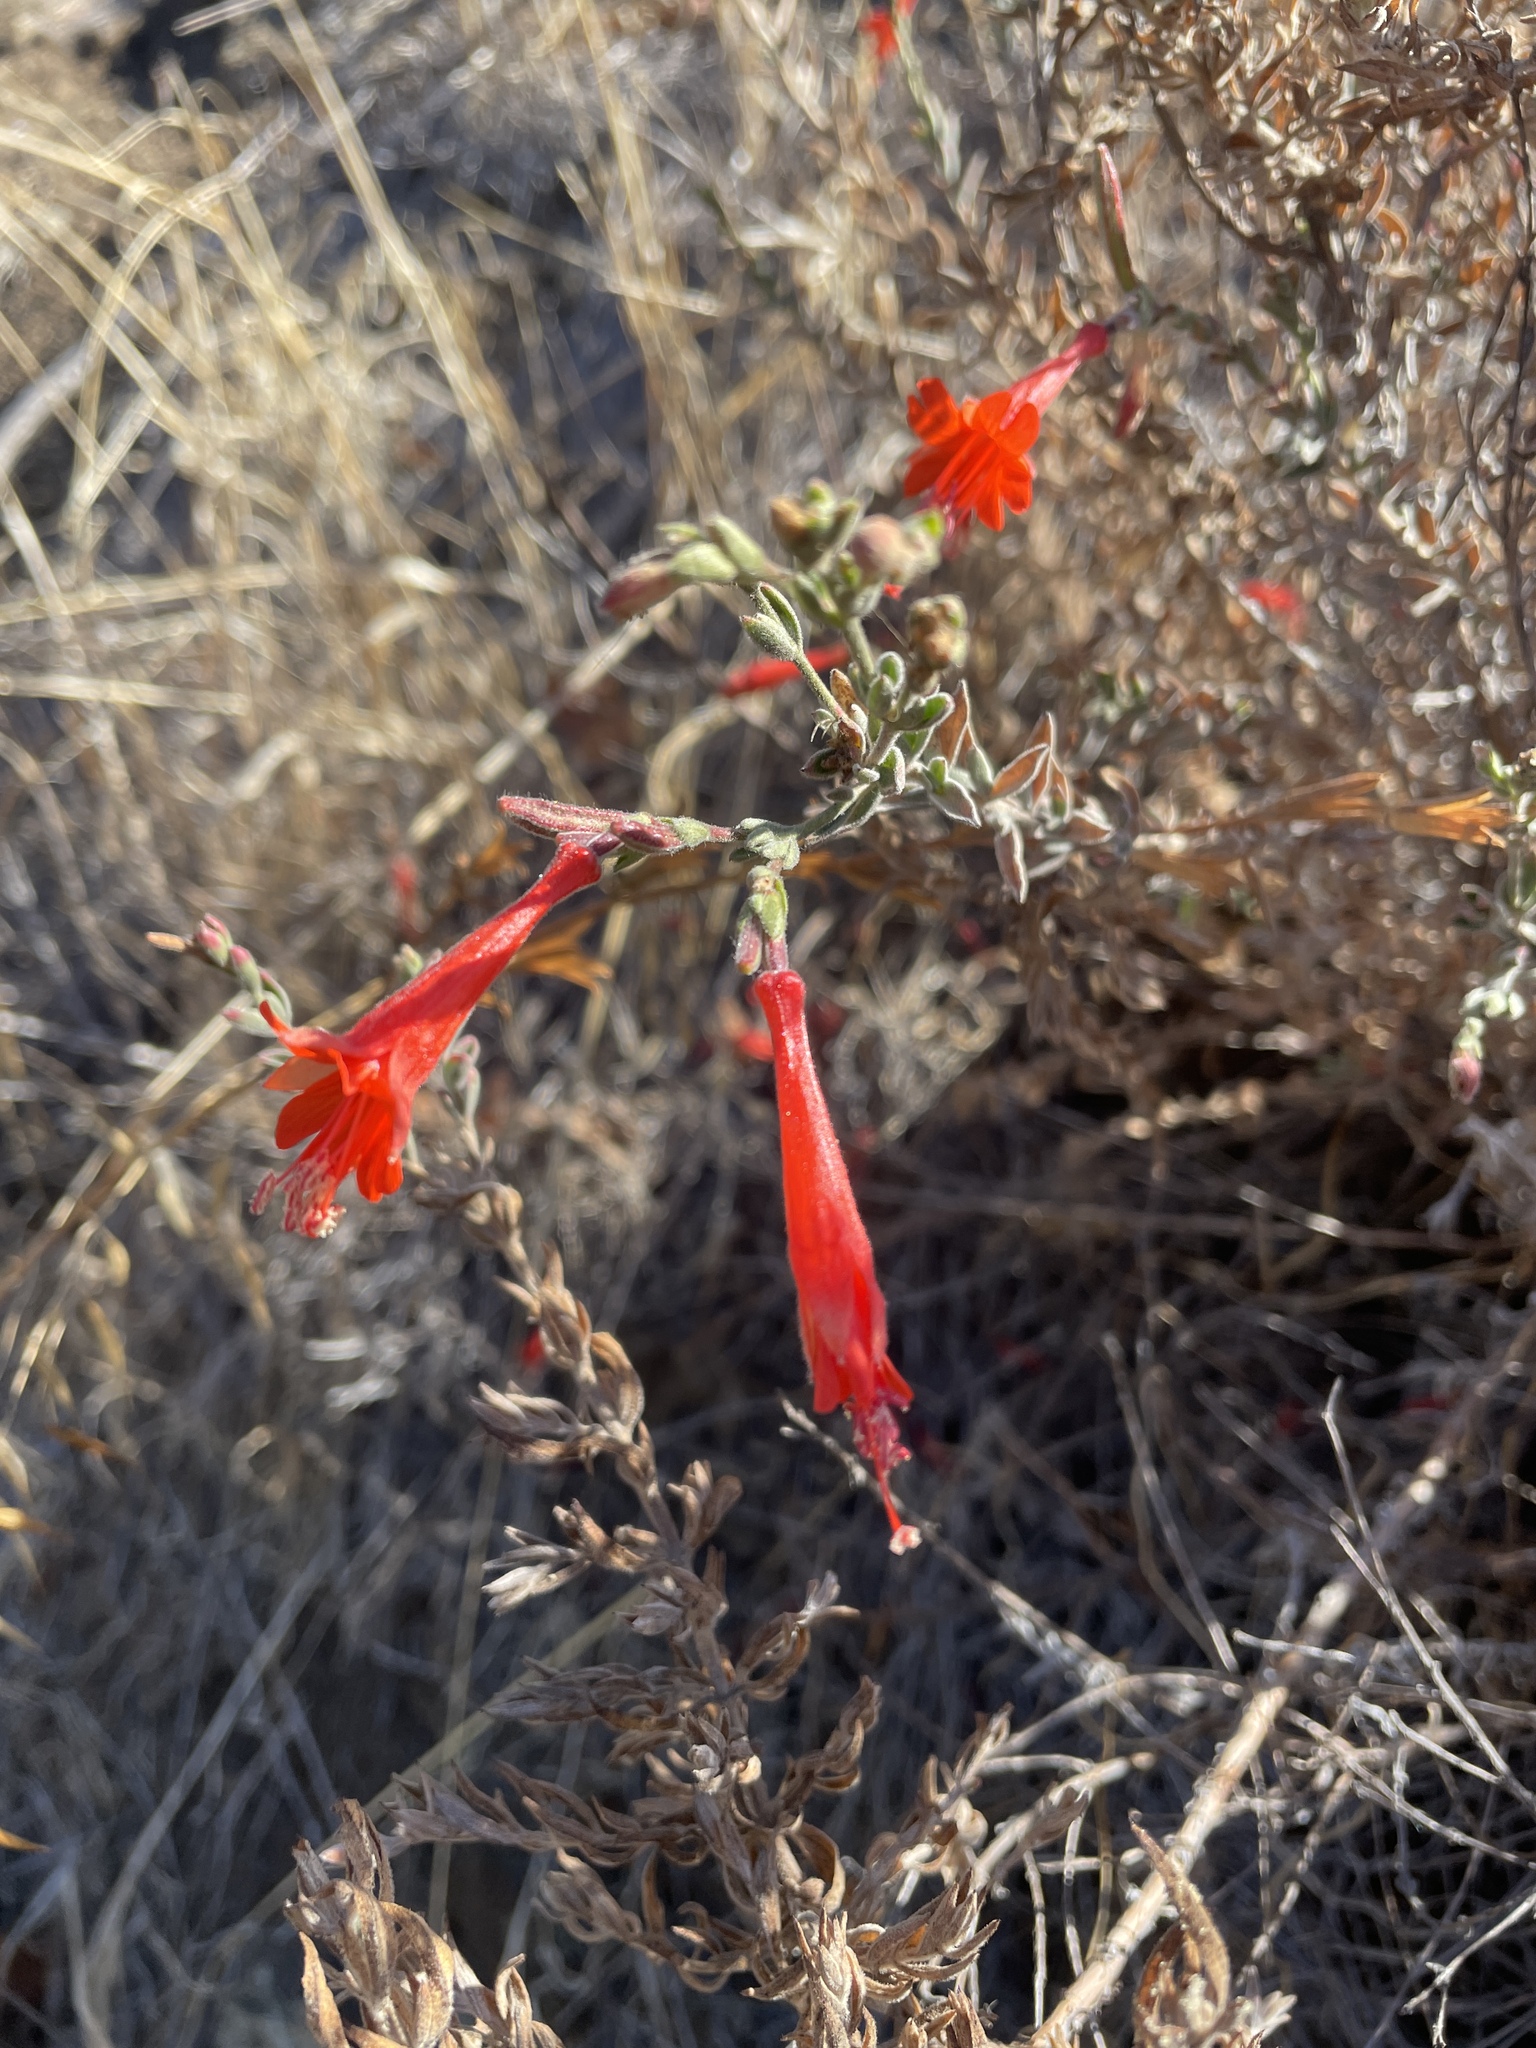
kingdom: Plantae
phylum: Tracheophyta
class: Magnoliopsida
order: Myrtales
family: Onagraceae
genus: Epilobium
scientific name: Epilobium canum
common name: California-fuchsia
